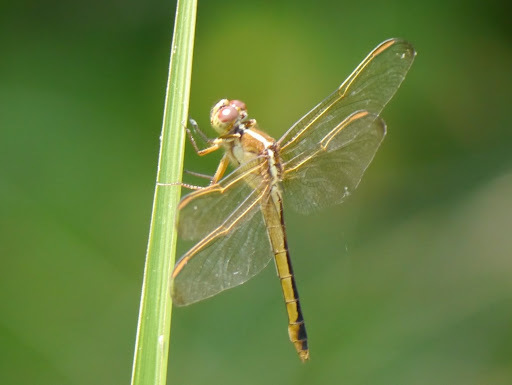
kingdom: Animalia
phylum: Arthropoda
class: Insecta
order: Odonata
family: Libellulidae
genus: Libellula
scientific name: Libellula needhami
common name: Needham's skimmer
